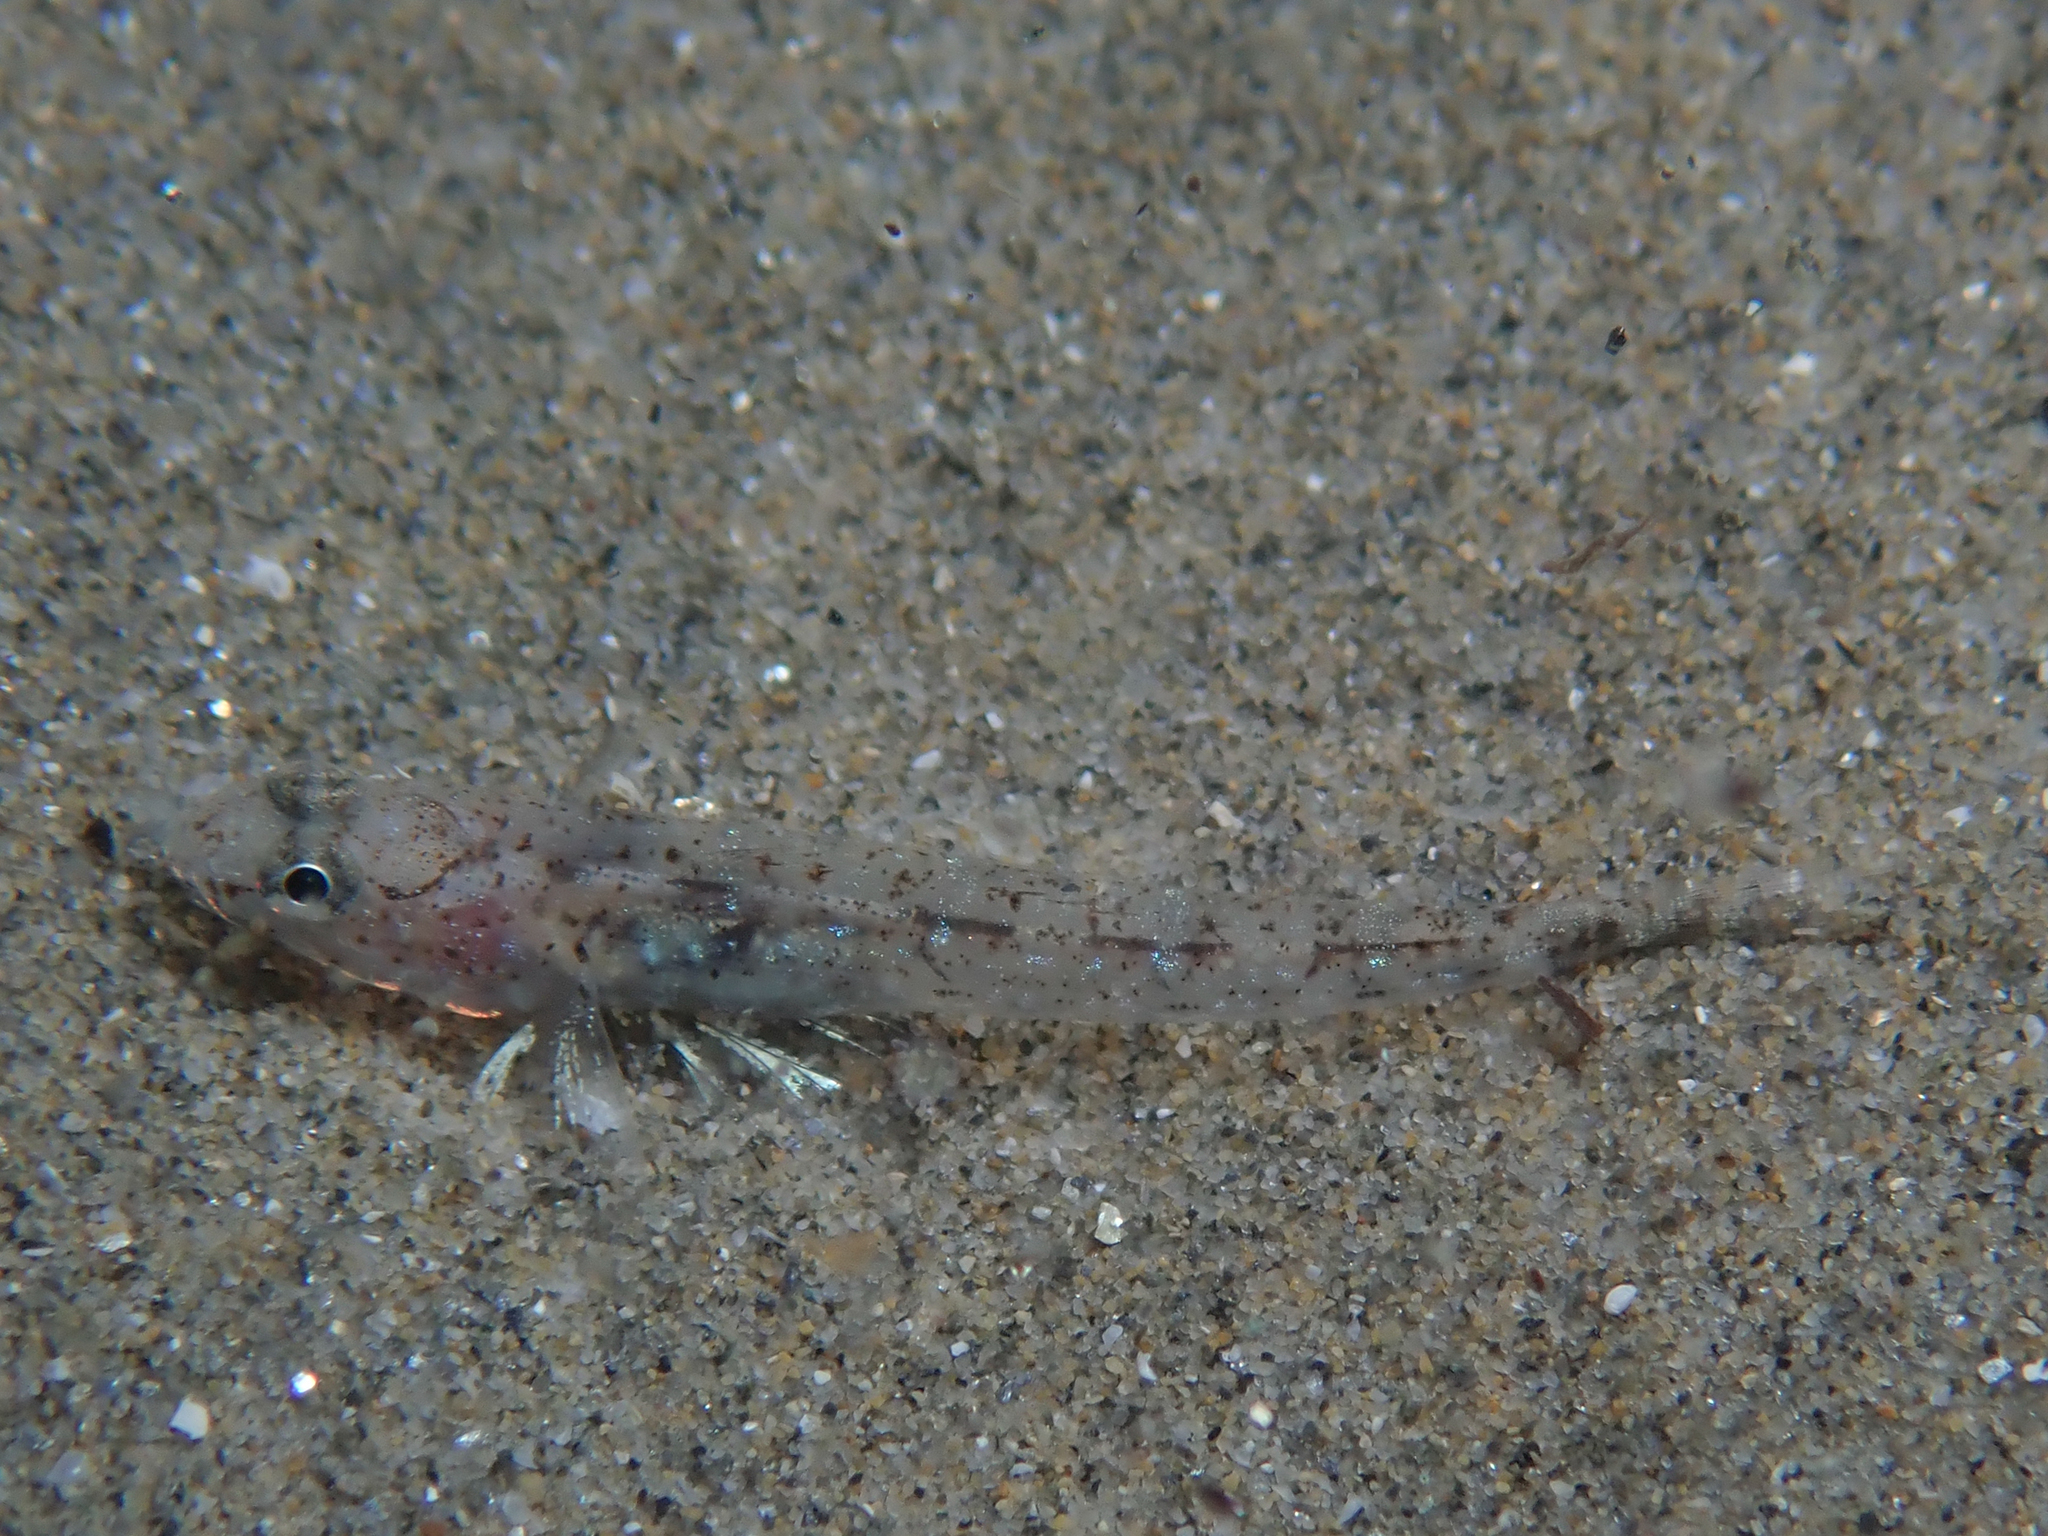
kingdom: Animalia
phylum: Chordata
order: Perciformes
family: Gobiidae
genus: Pomatoschistus
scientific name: Pomatoschistus marmoratus
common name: Marbled goby
